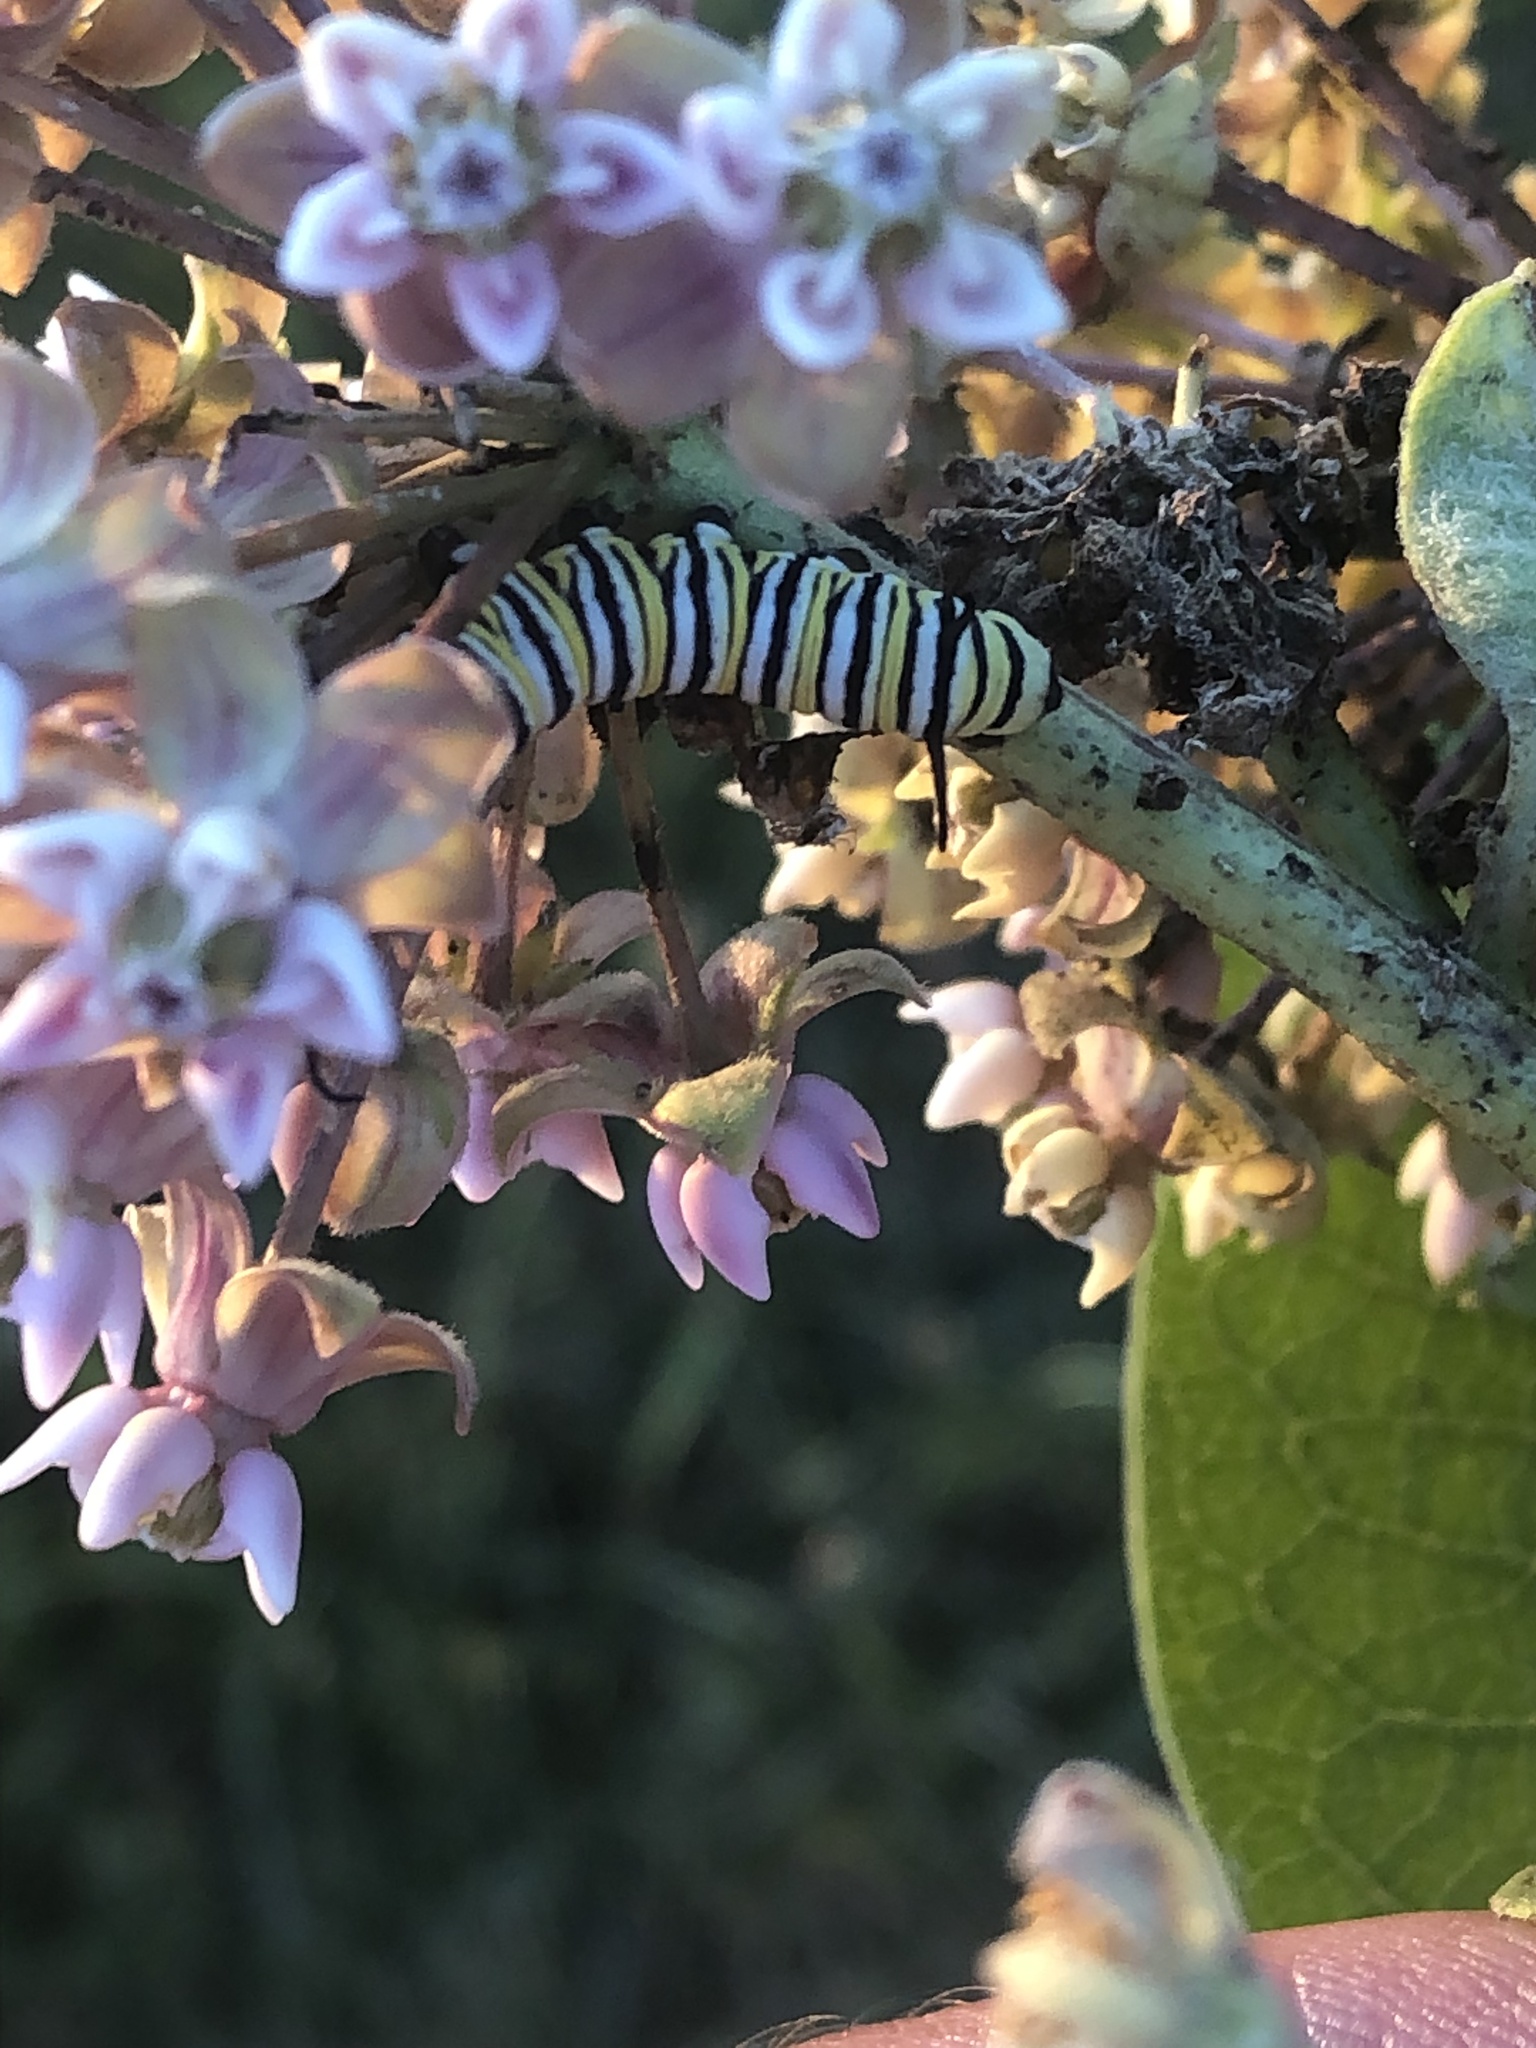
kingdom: Animalia
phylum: Arthropoda
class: Insecta
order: Lepidoptera
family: Nymphalidae
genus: Danaus
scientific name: Danaus plexippus
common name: Monarch
